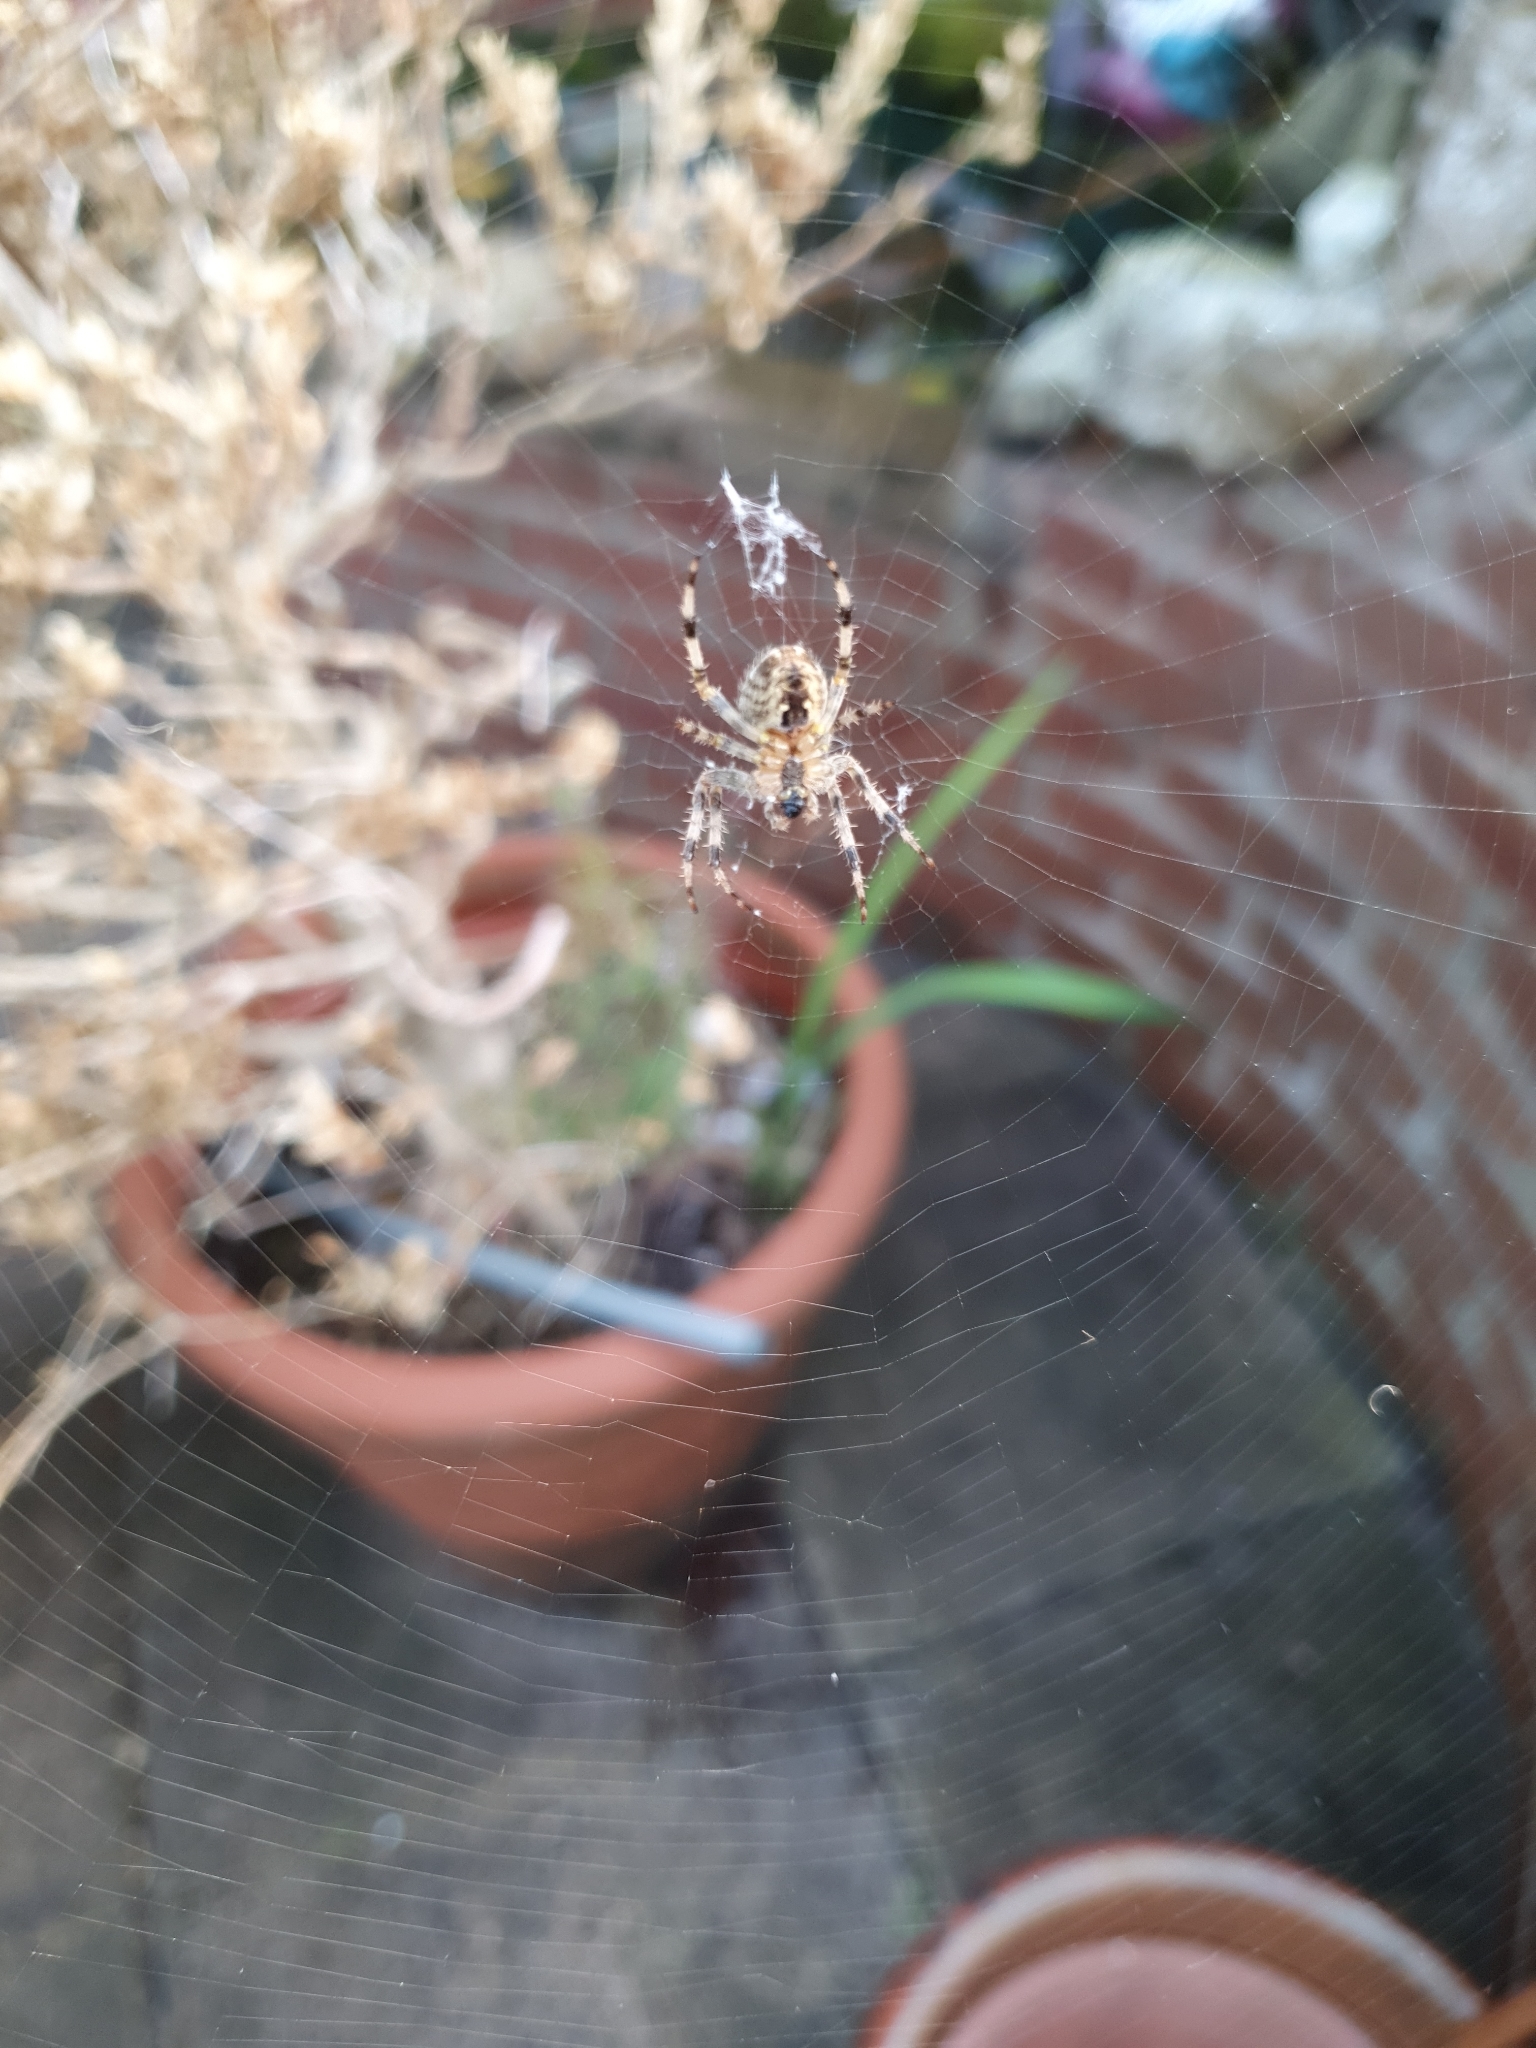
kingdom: Animalia
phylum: Arthropoda
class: Arachnida
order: Araneae
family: Araneidae
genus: Araneus
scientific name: Araneus diadematus
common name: Cross orbweaver
